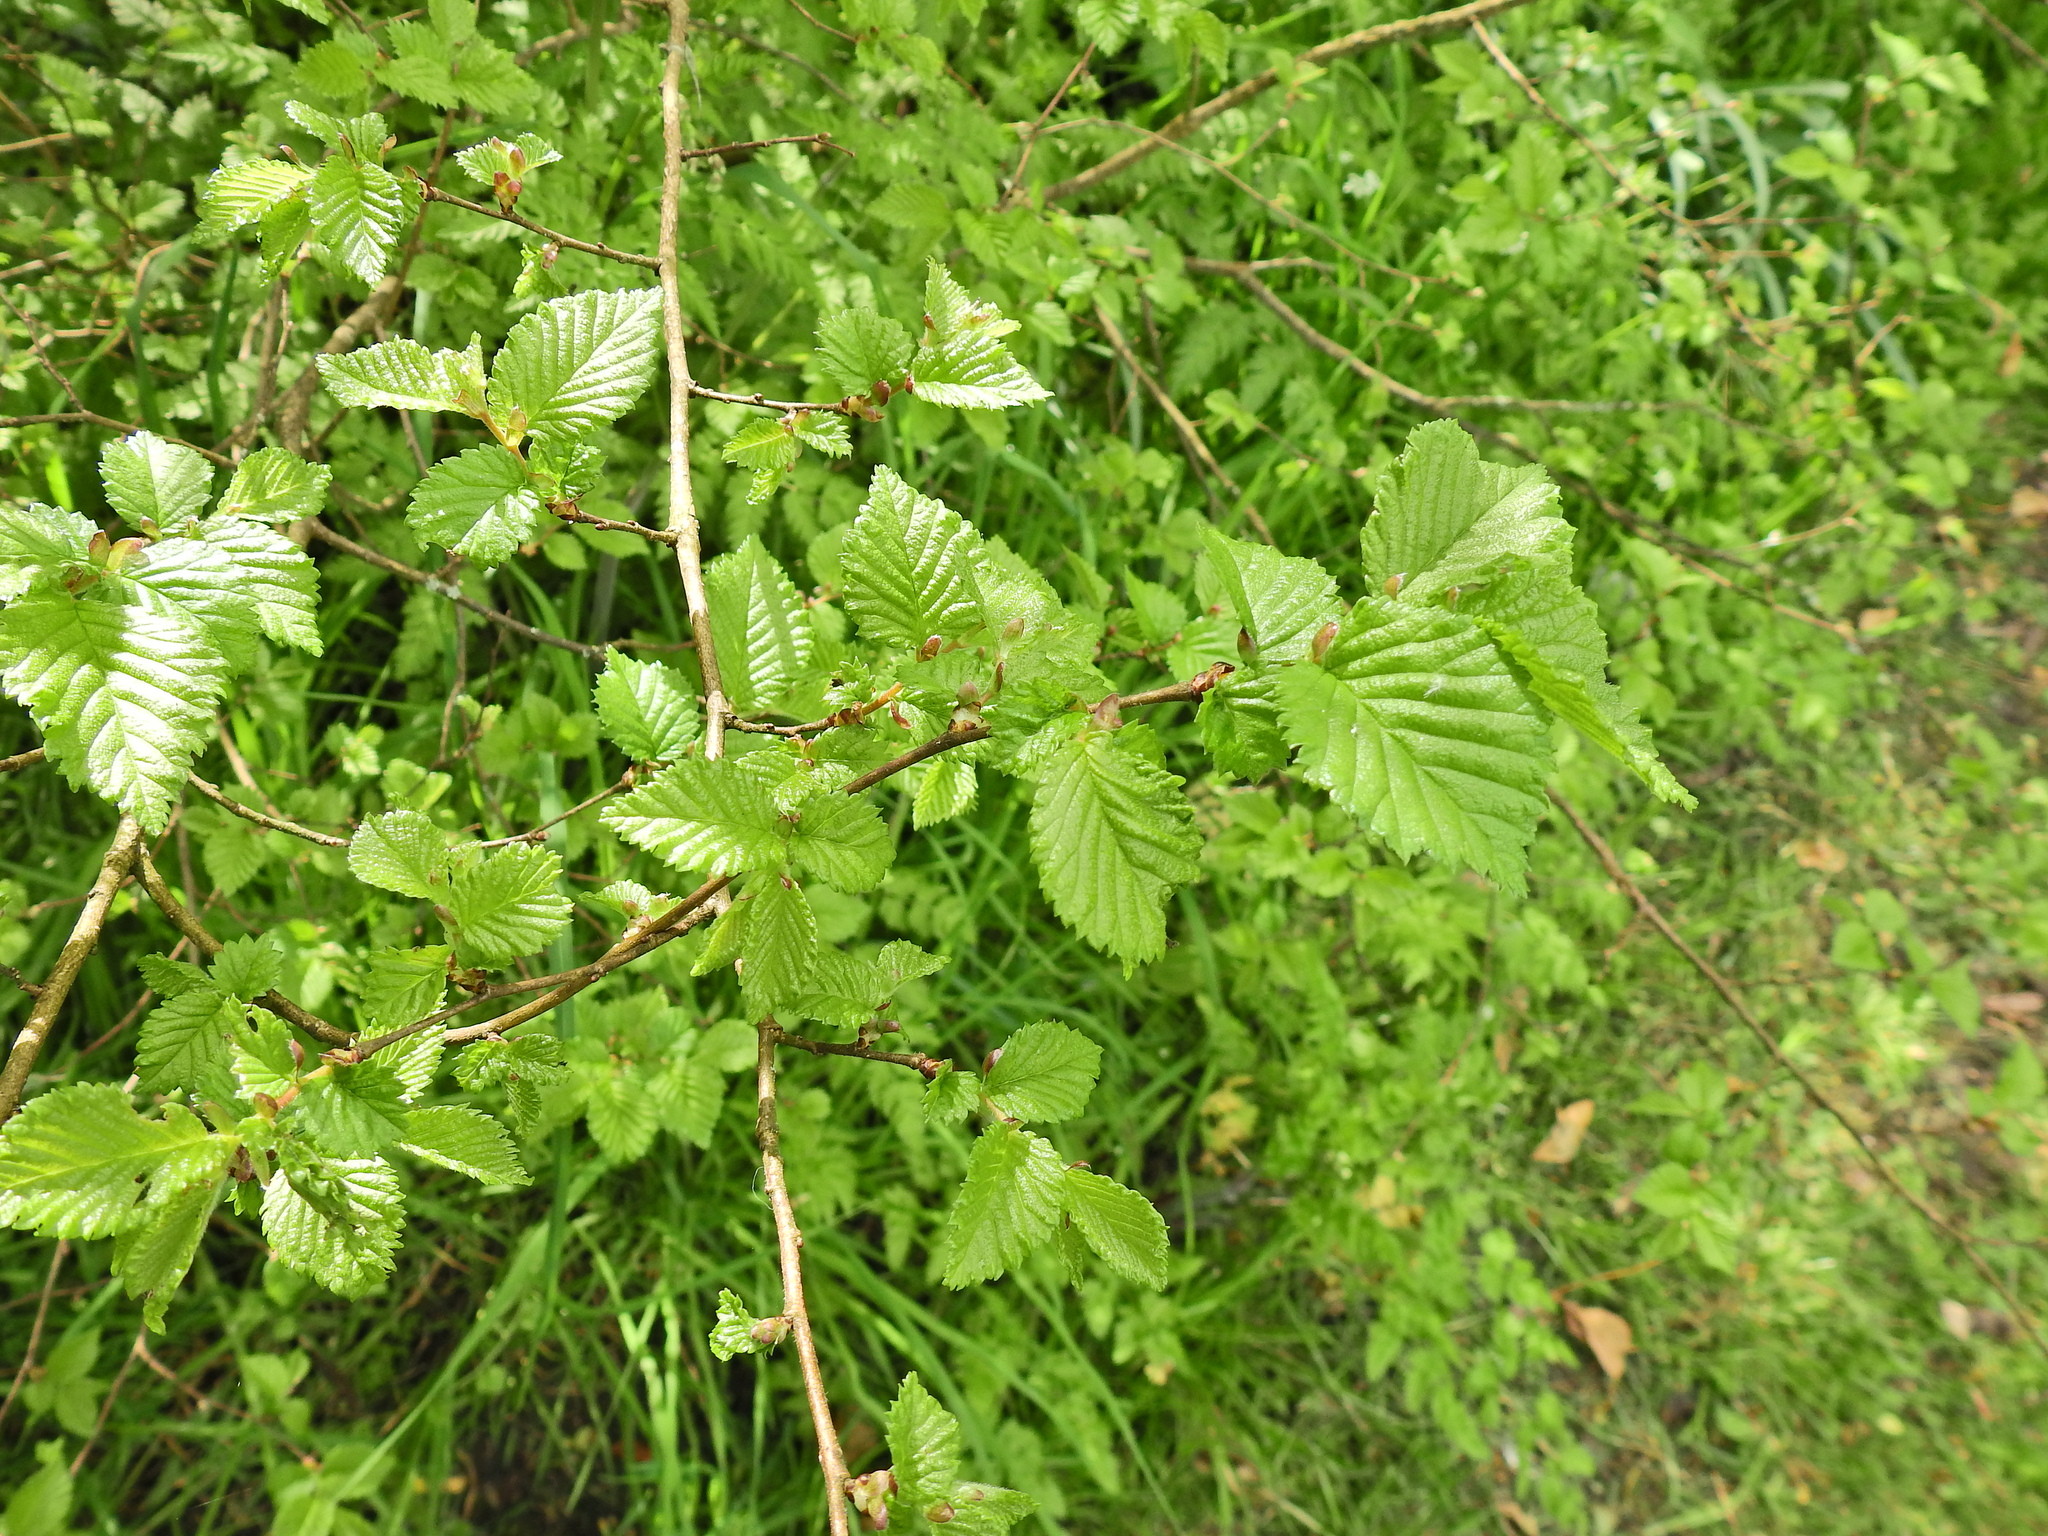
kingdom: Plantae
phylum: Tracheophyta
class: Magnoliopsida
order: Rosales
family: Ulmaceae
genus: Ulmus
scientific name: Ulmus minor
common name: Small-leaved elm
